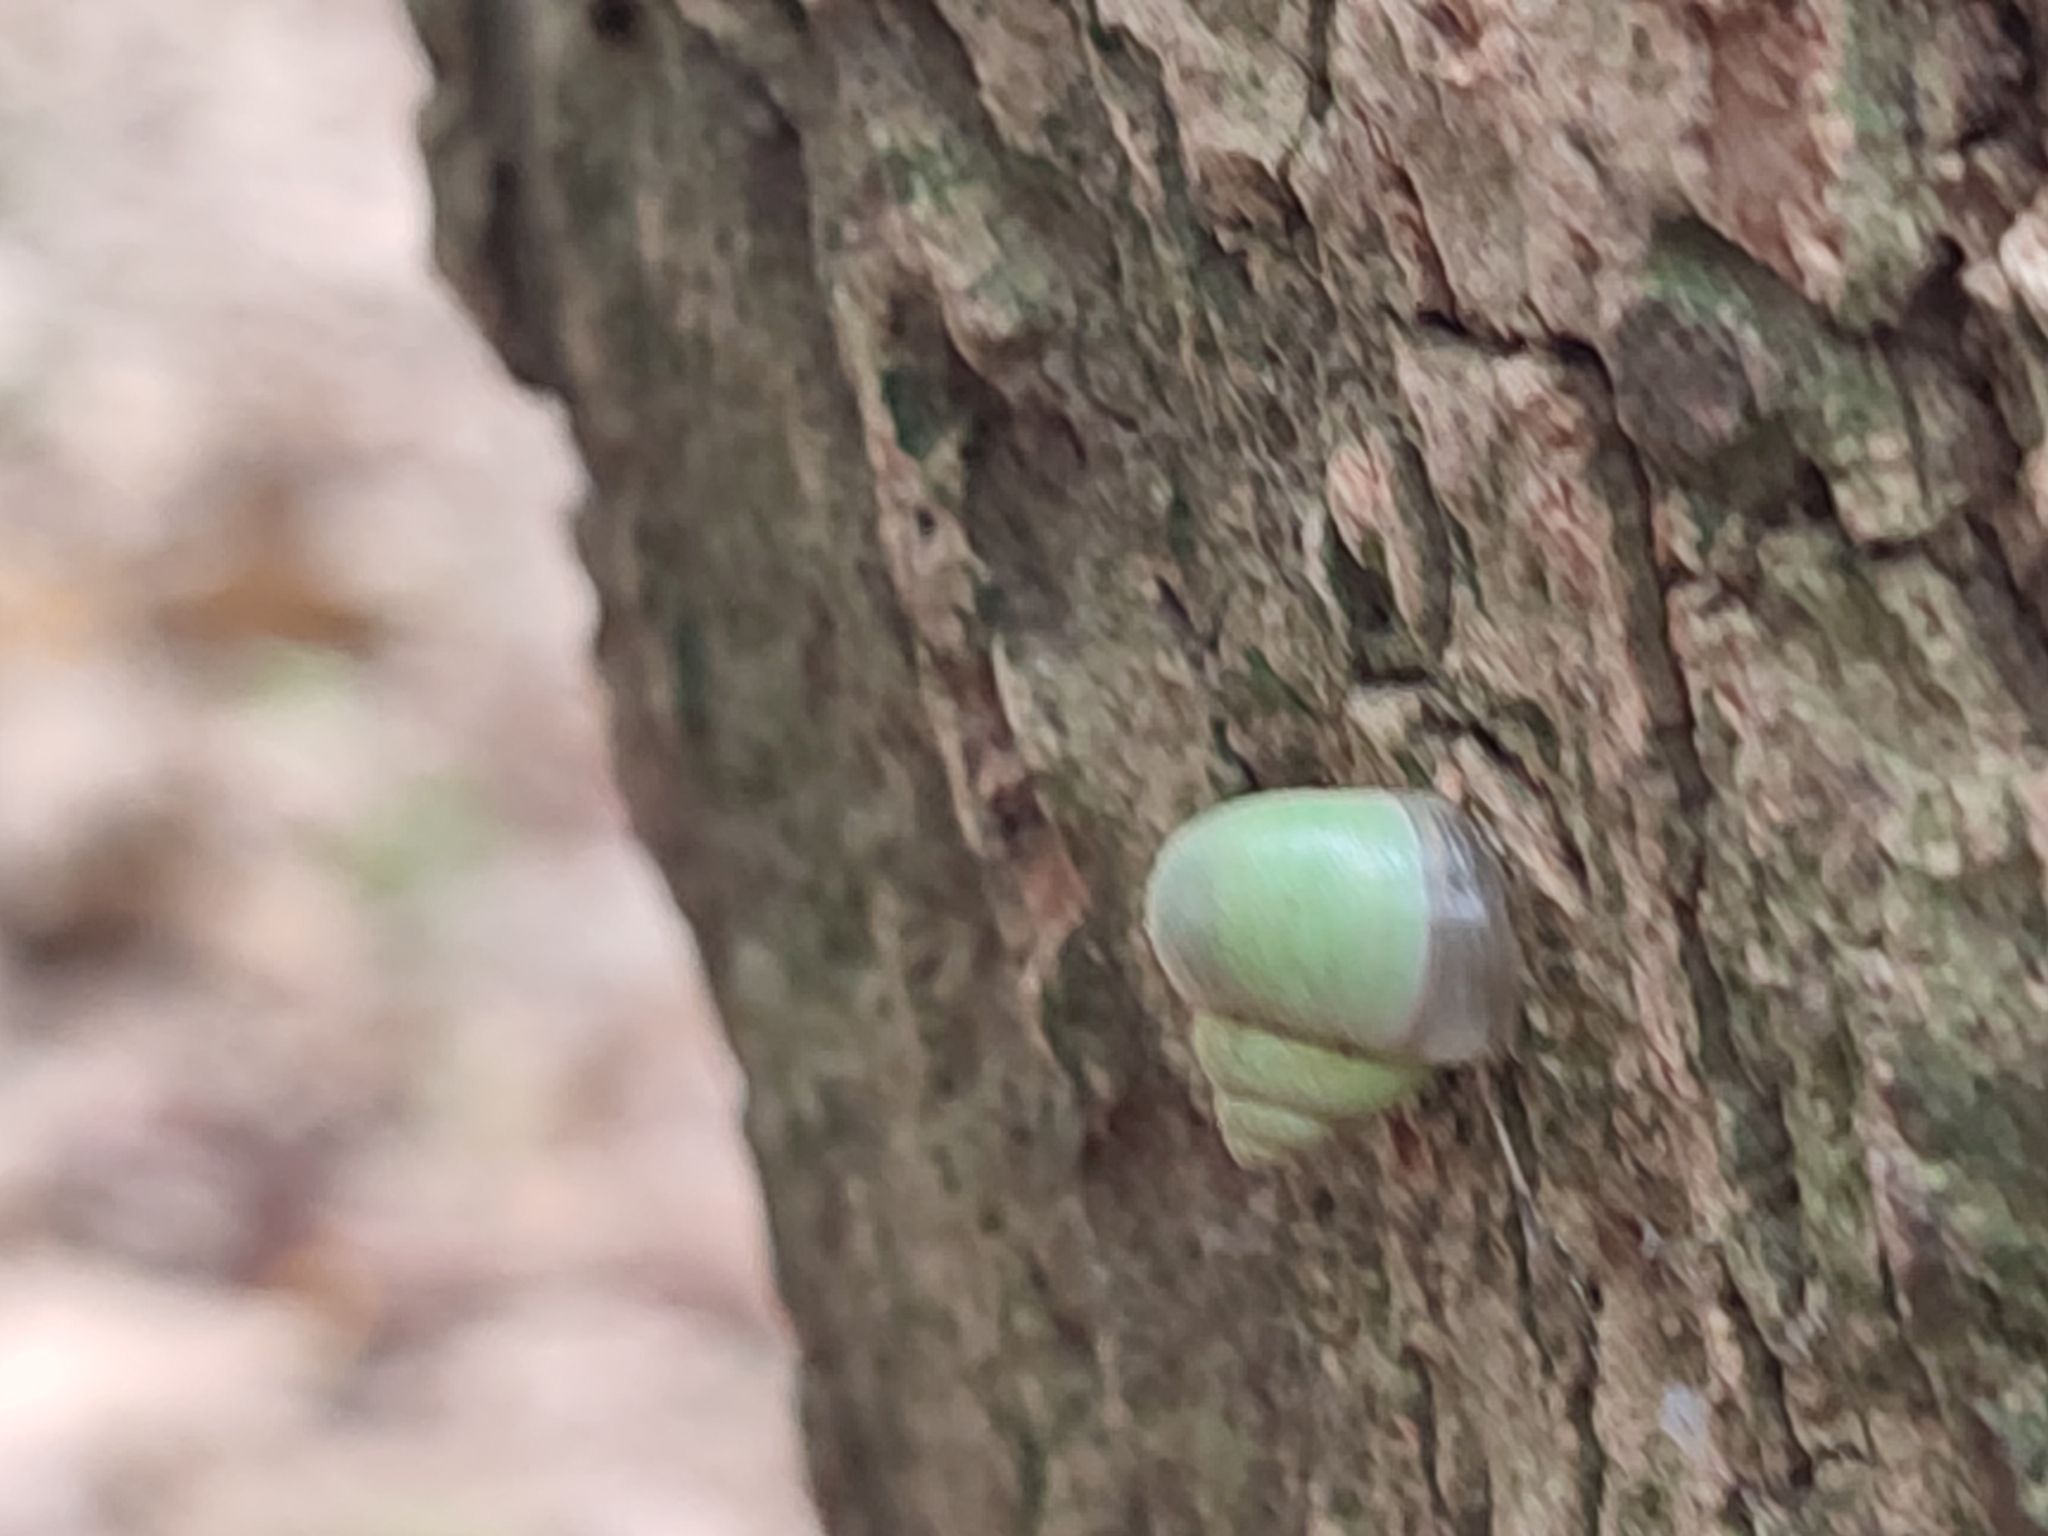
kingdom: Animalia
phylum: Mollusca
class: Gastropoda
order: Architaenioglossa
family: Cyclophoridae
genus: Leptopoma
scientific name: Leptopoma nitidum
